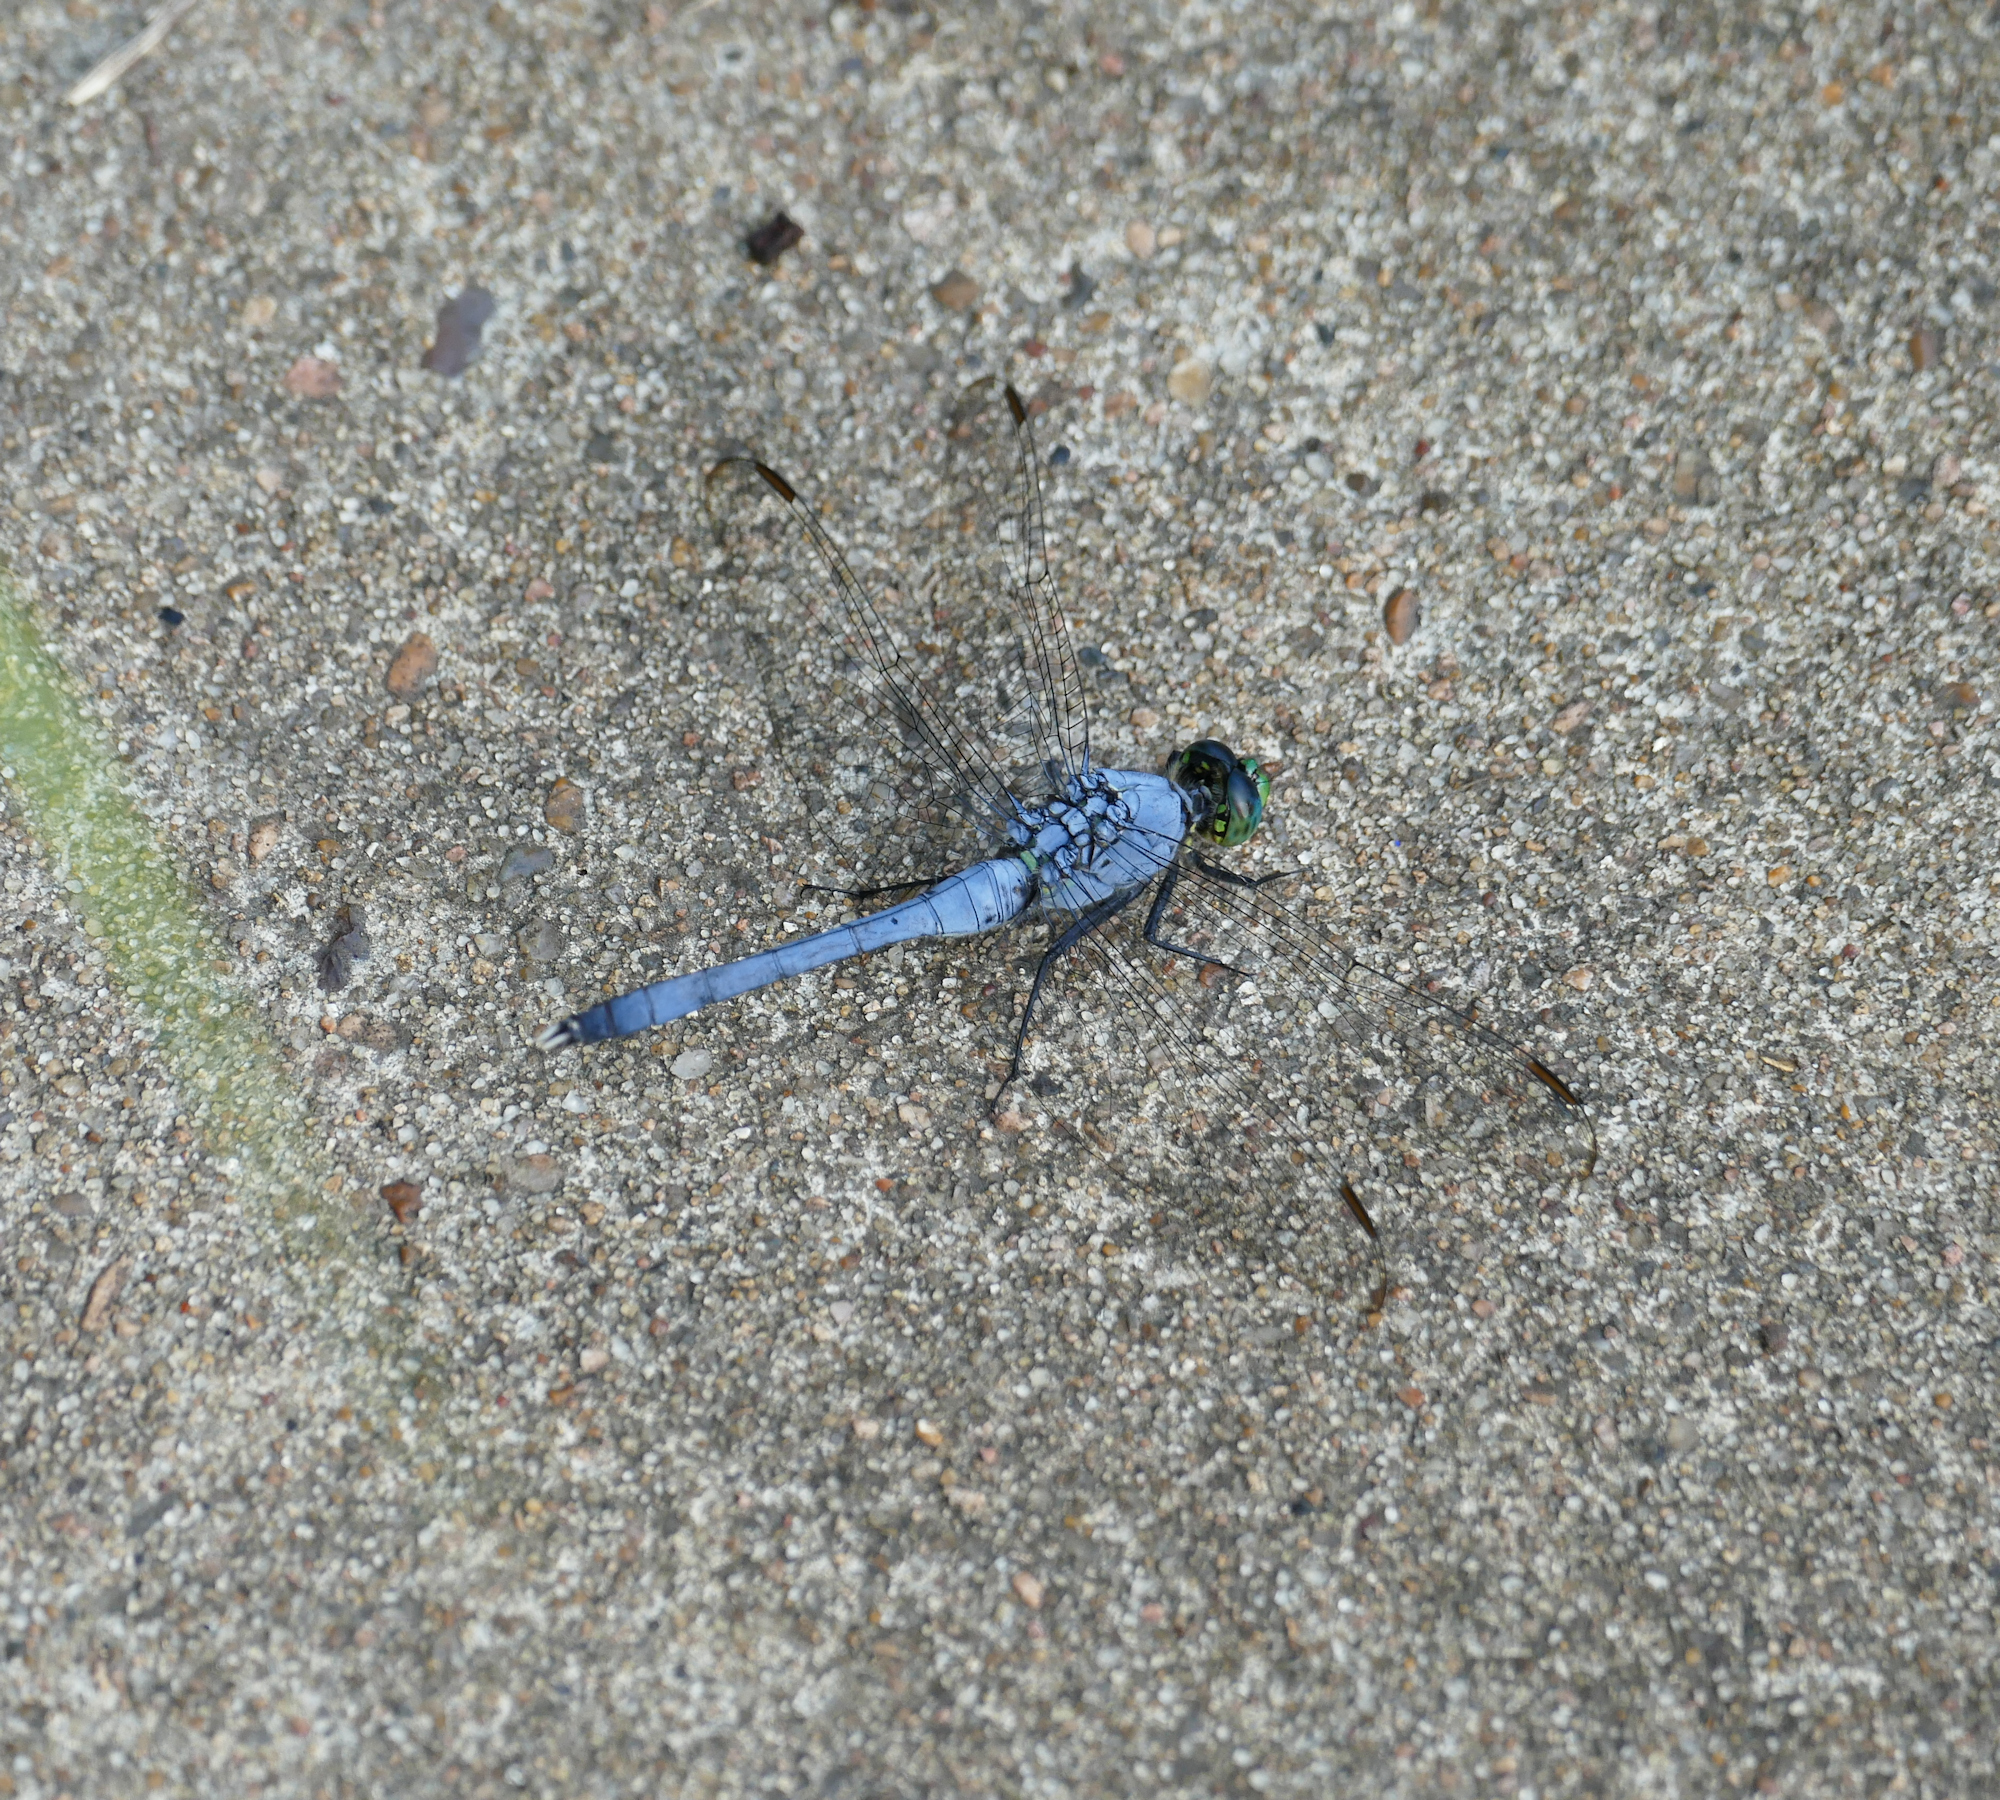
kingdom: Animalia
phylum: Arthropoda
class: Insecta
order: Odonata
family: Libellulidae
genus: Erythemis
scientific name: Erythemis simplicicollis
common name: Eastern pondhawk
